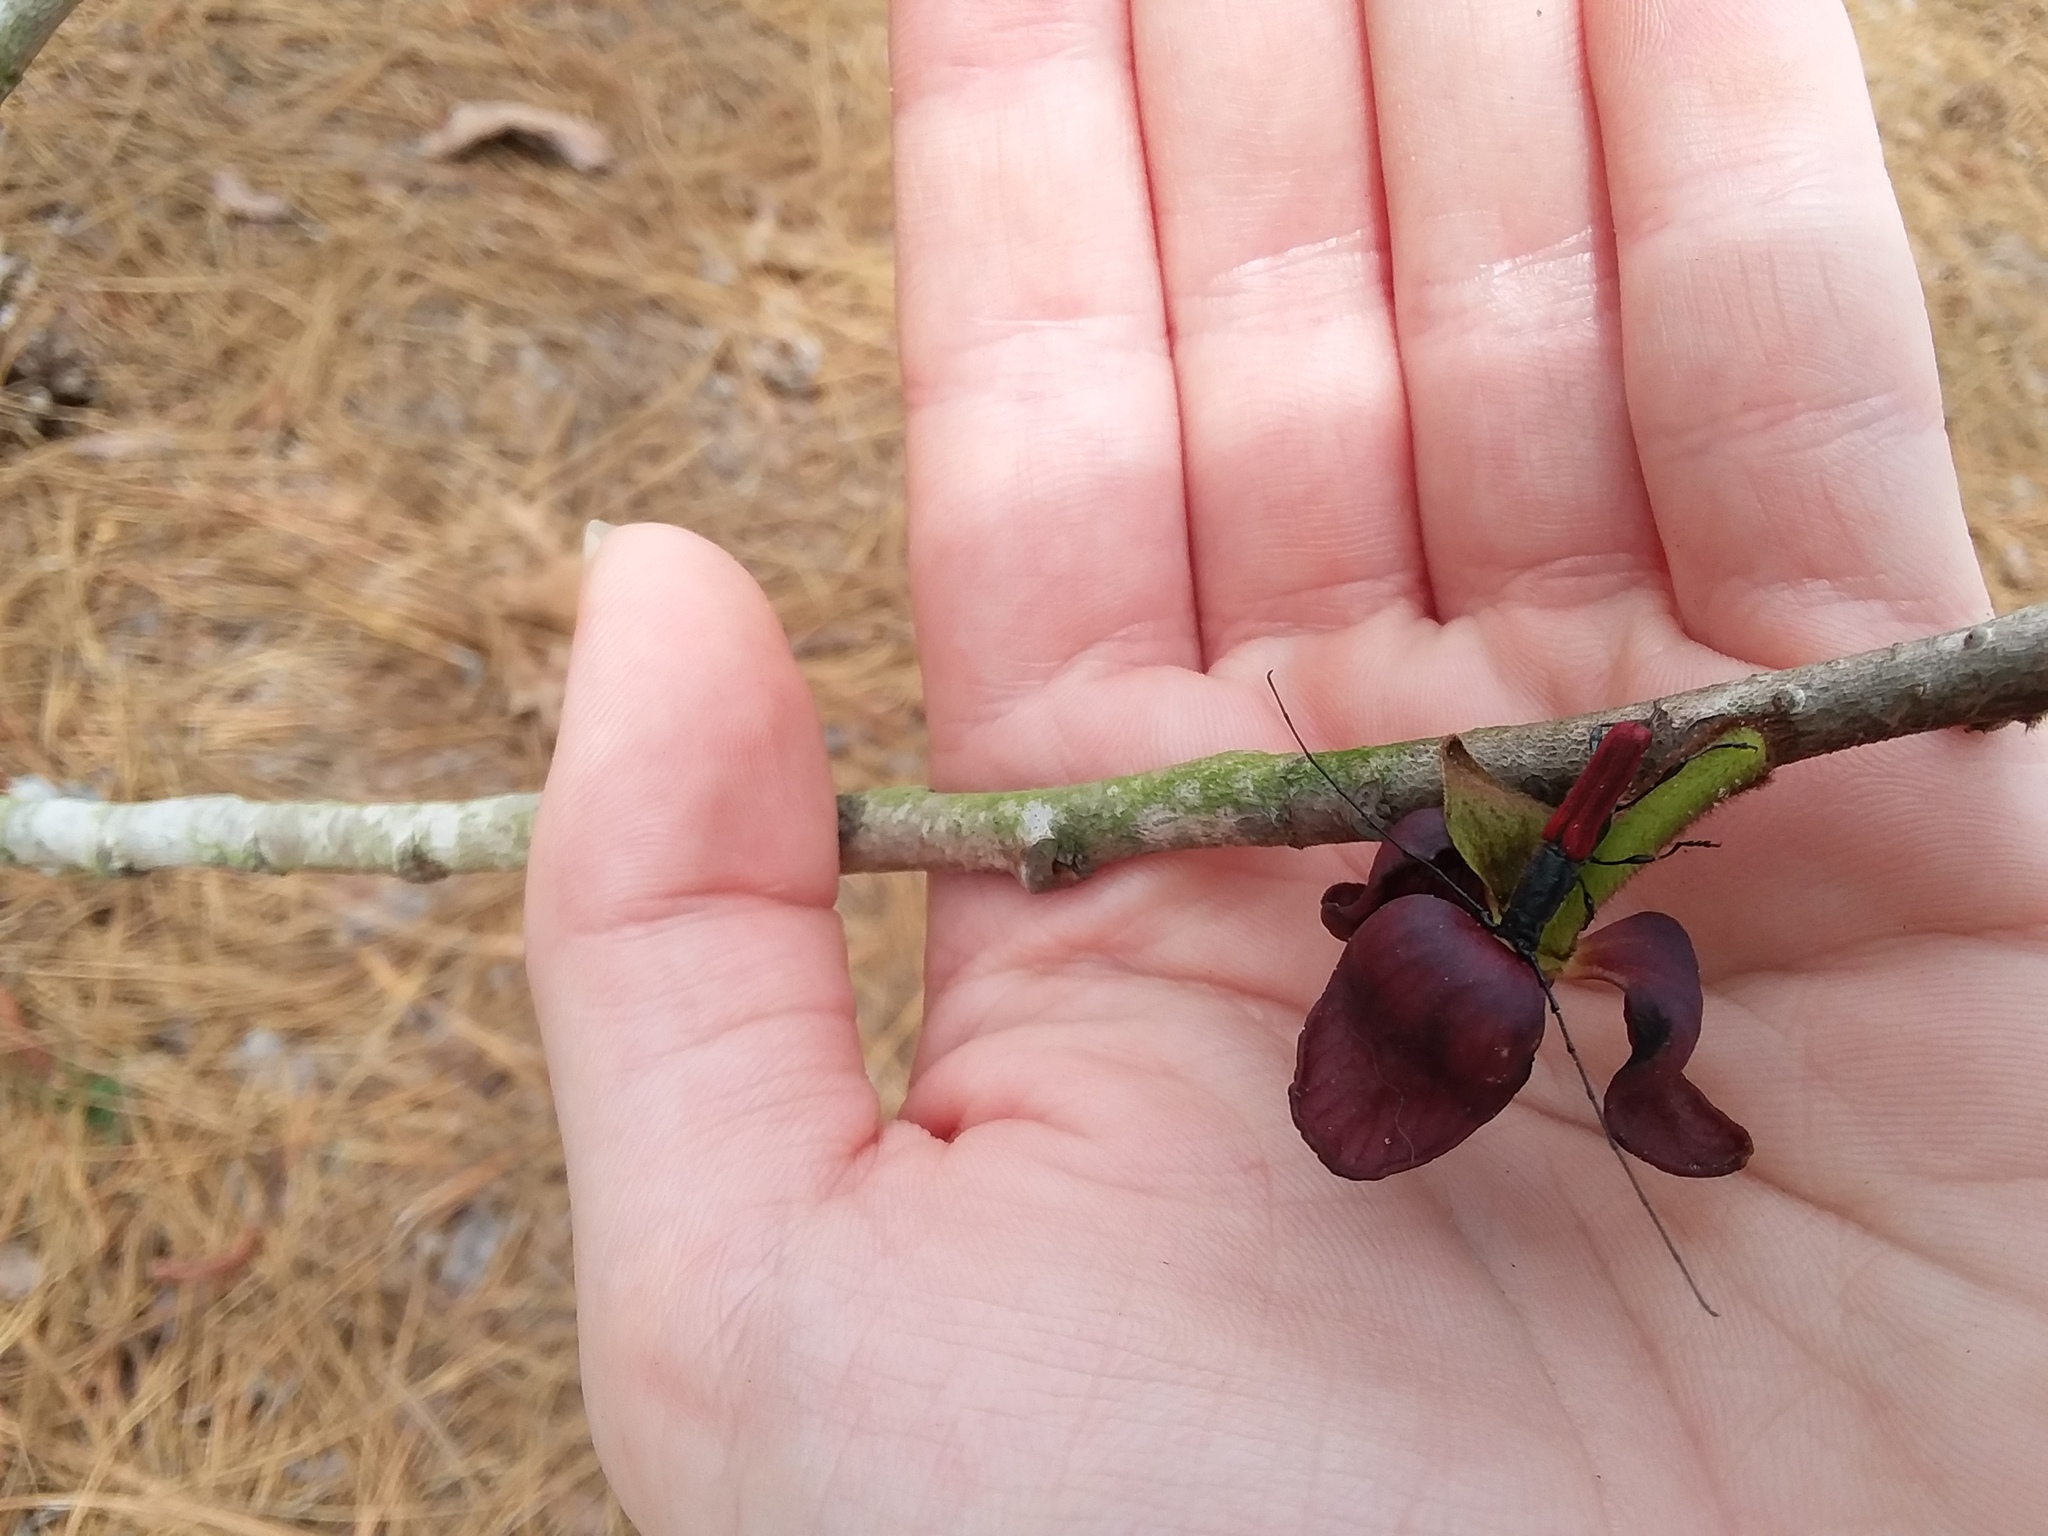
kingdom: Animalia
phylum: Arthropoda
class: Insecta
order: Coleoptera
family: Cerambycidae
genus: Ancylocera
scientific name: Ancylocera bicolor
